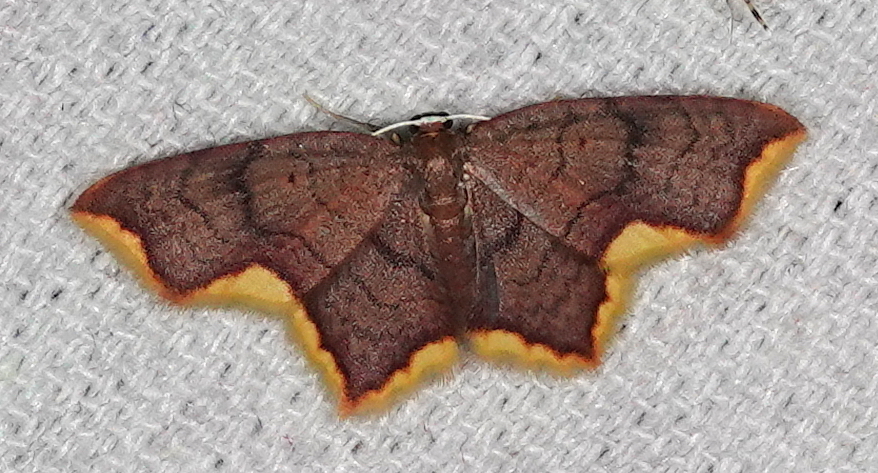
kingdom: Animalia
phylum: Arthropoda
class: Insecta
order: Lepidoptera
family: Geometridae
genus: Eois
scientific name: Eois chrysocraspedata
